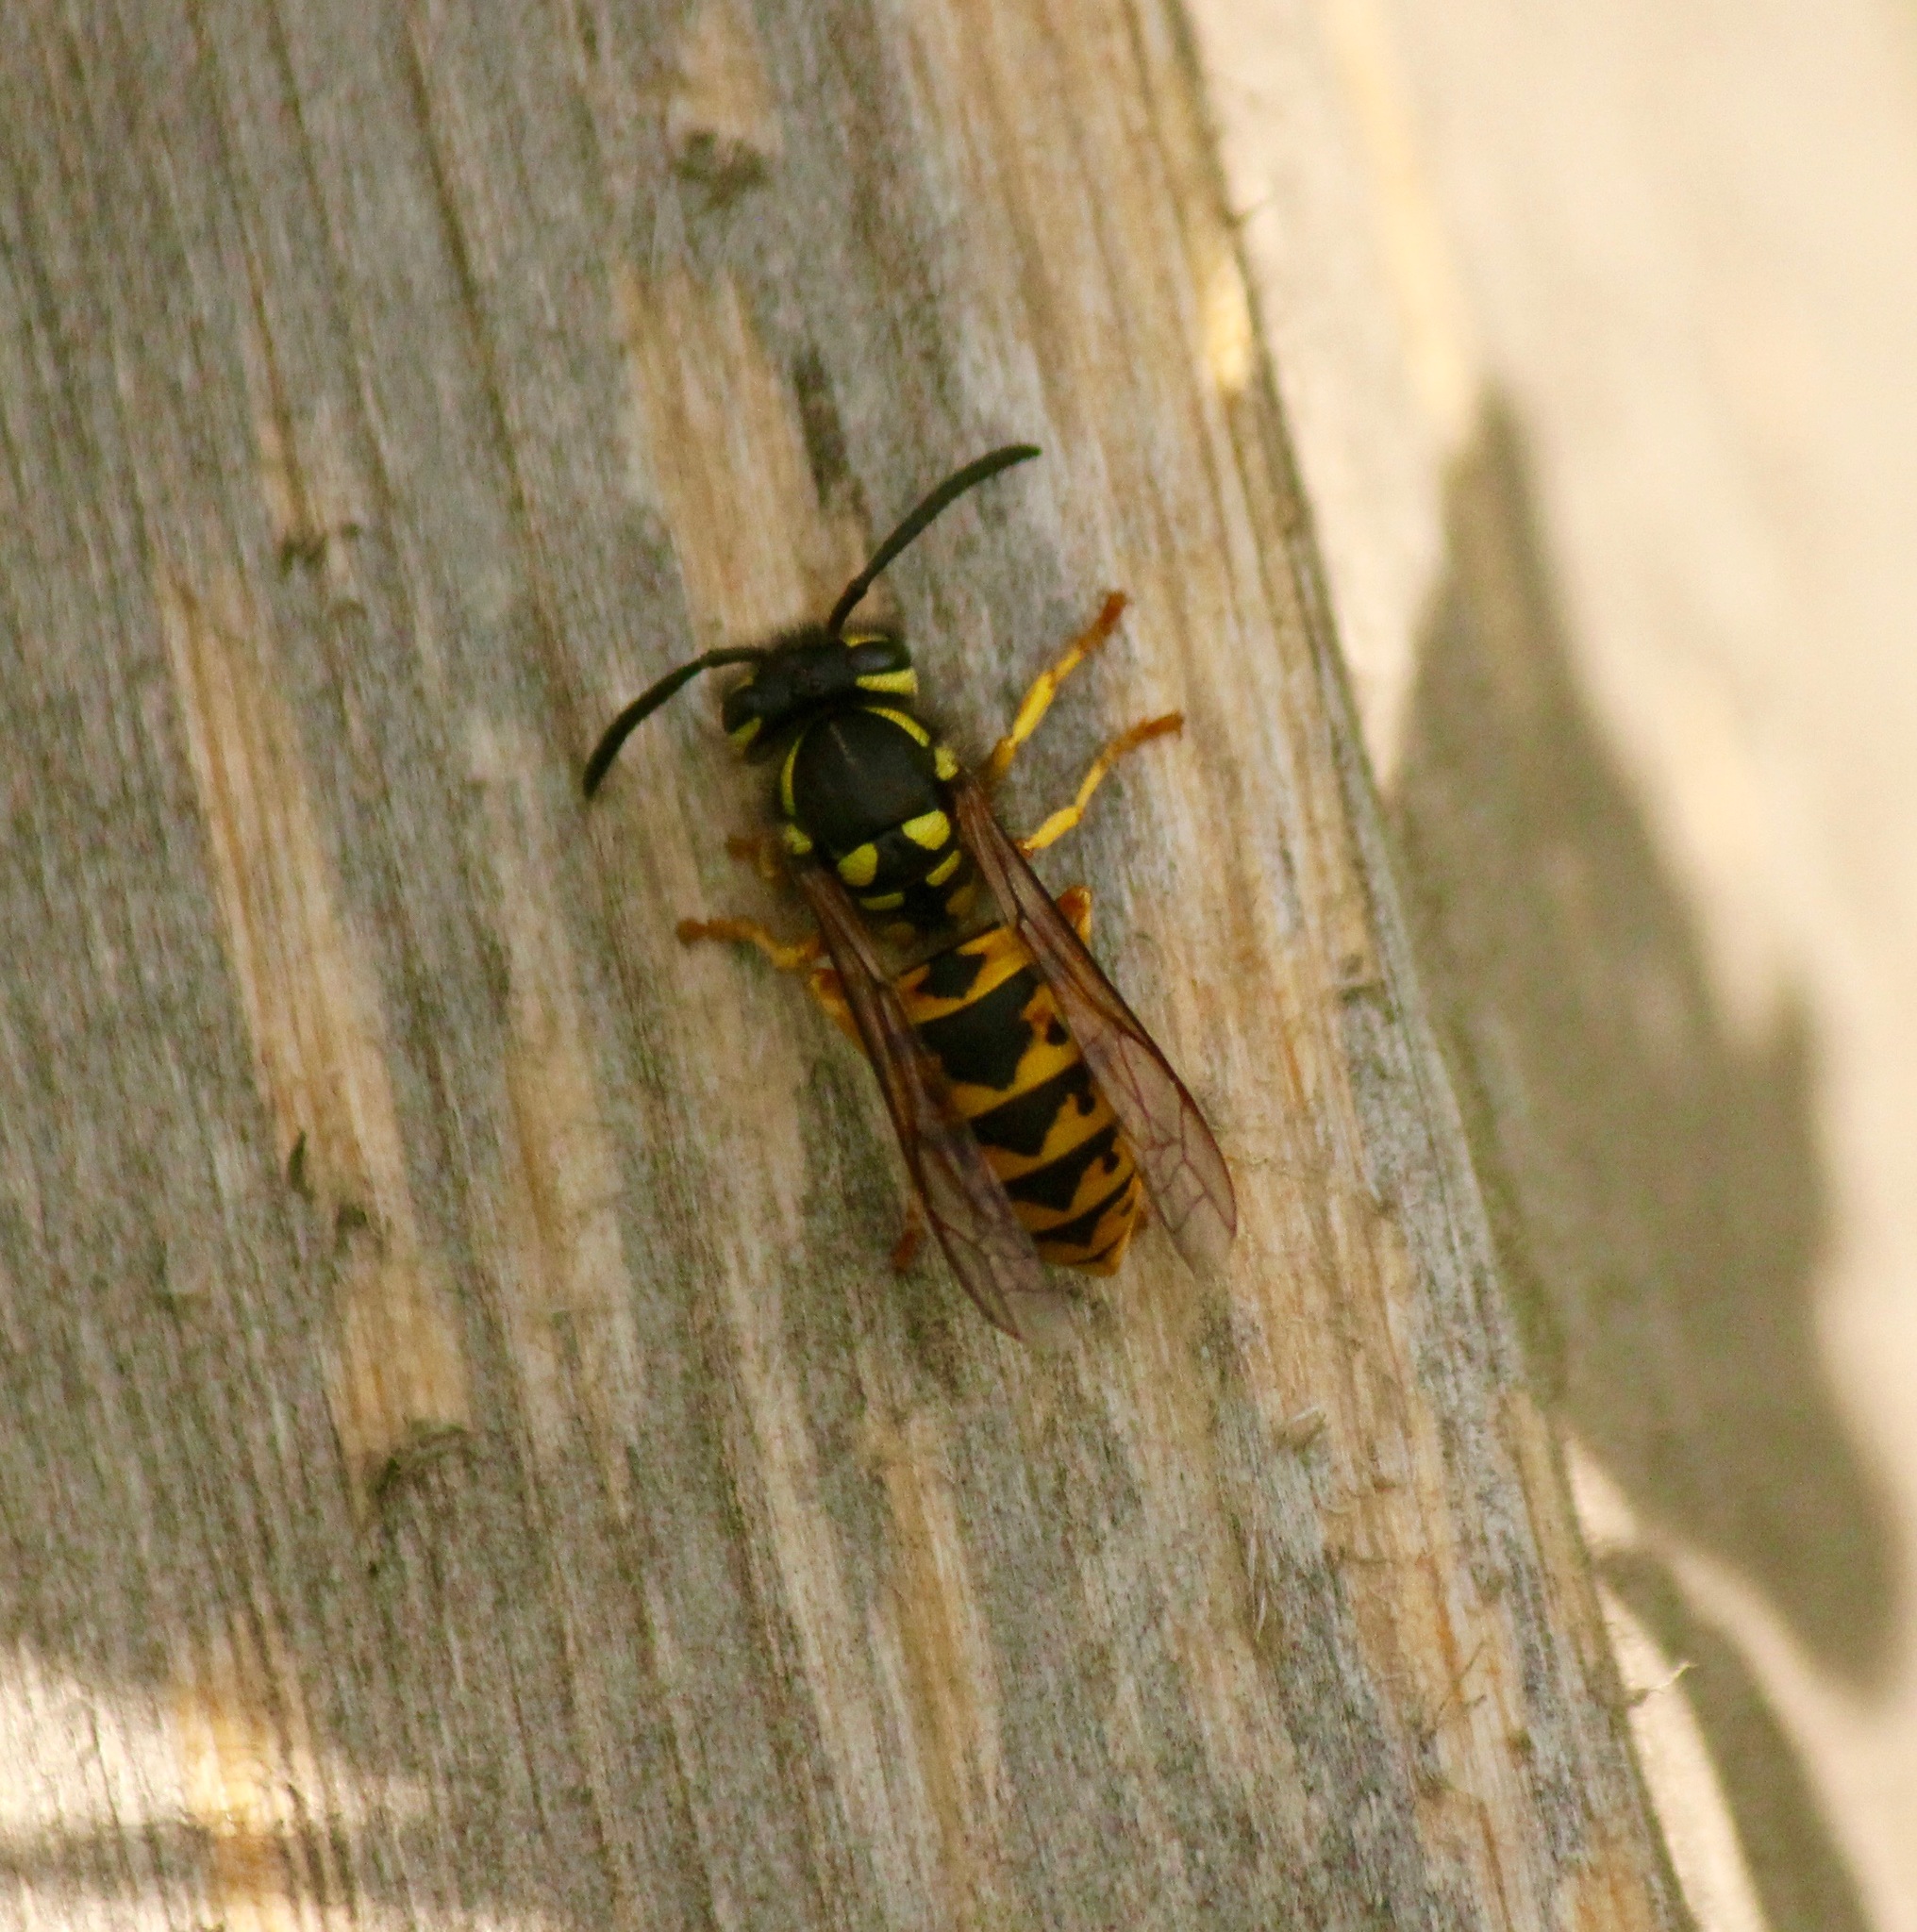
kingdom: Animalia
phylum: Arthropoda
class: Insecta
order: Hymenoptera
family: Vespidae
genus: Vespula
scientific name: Vespula germanica
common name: German wasp
